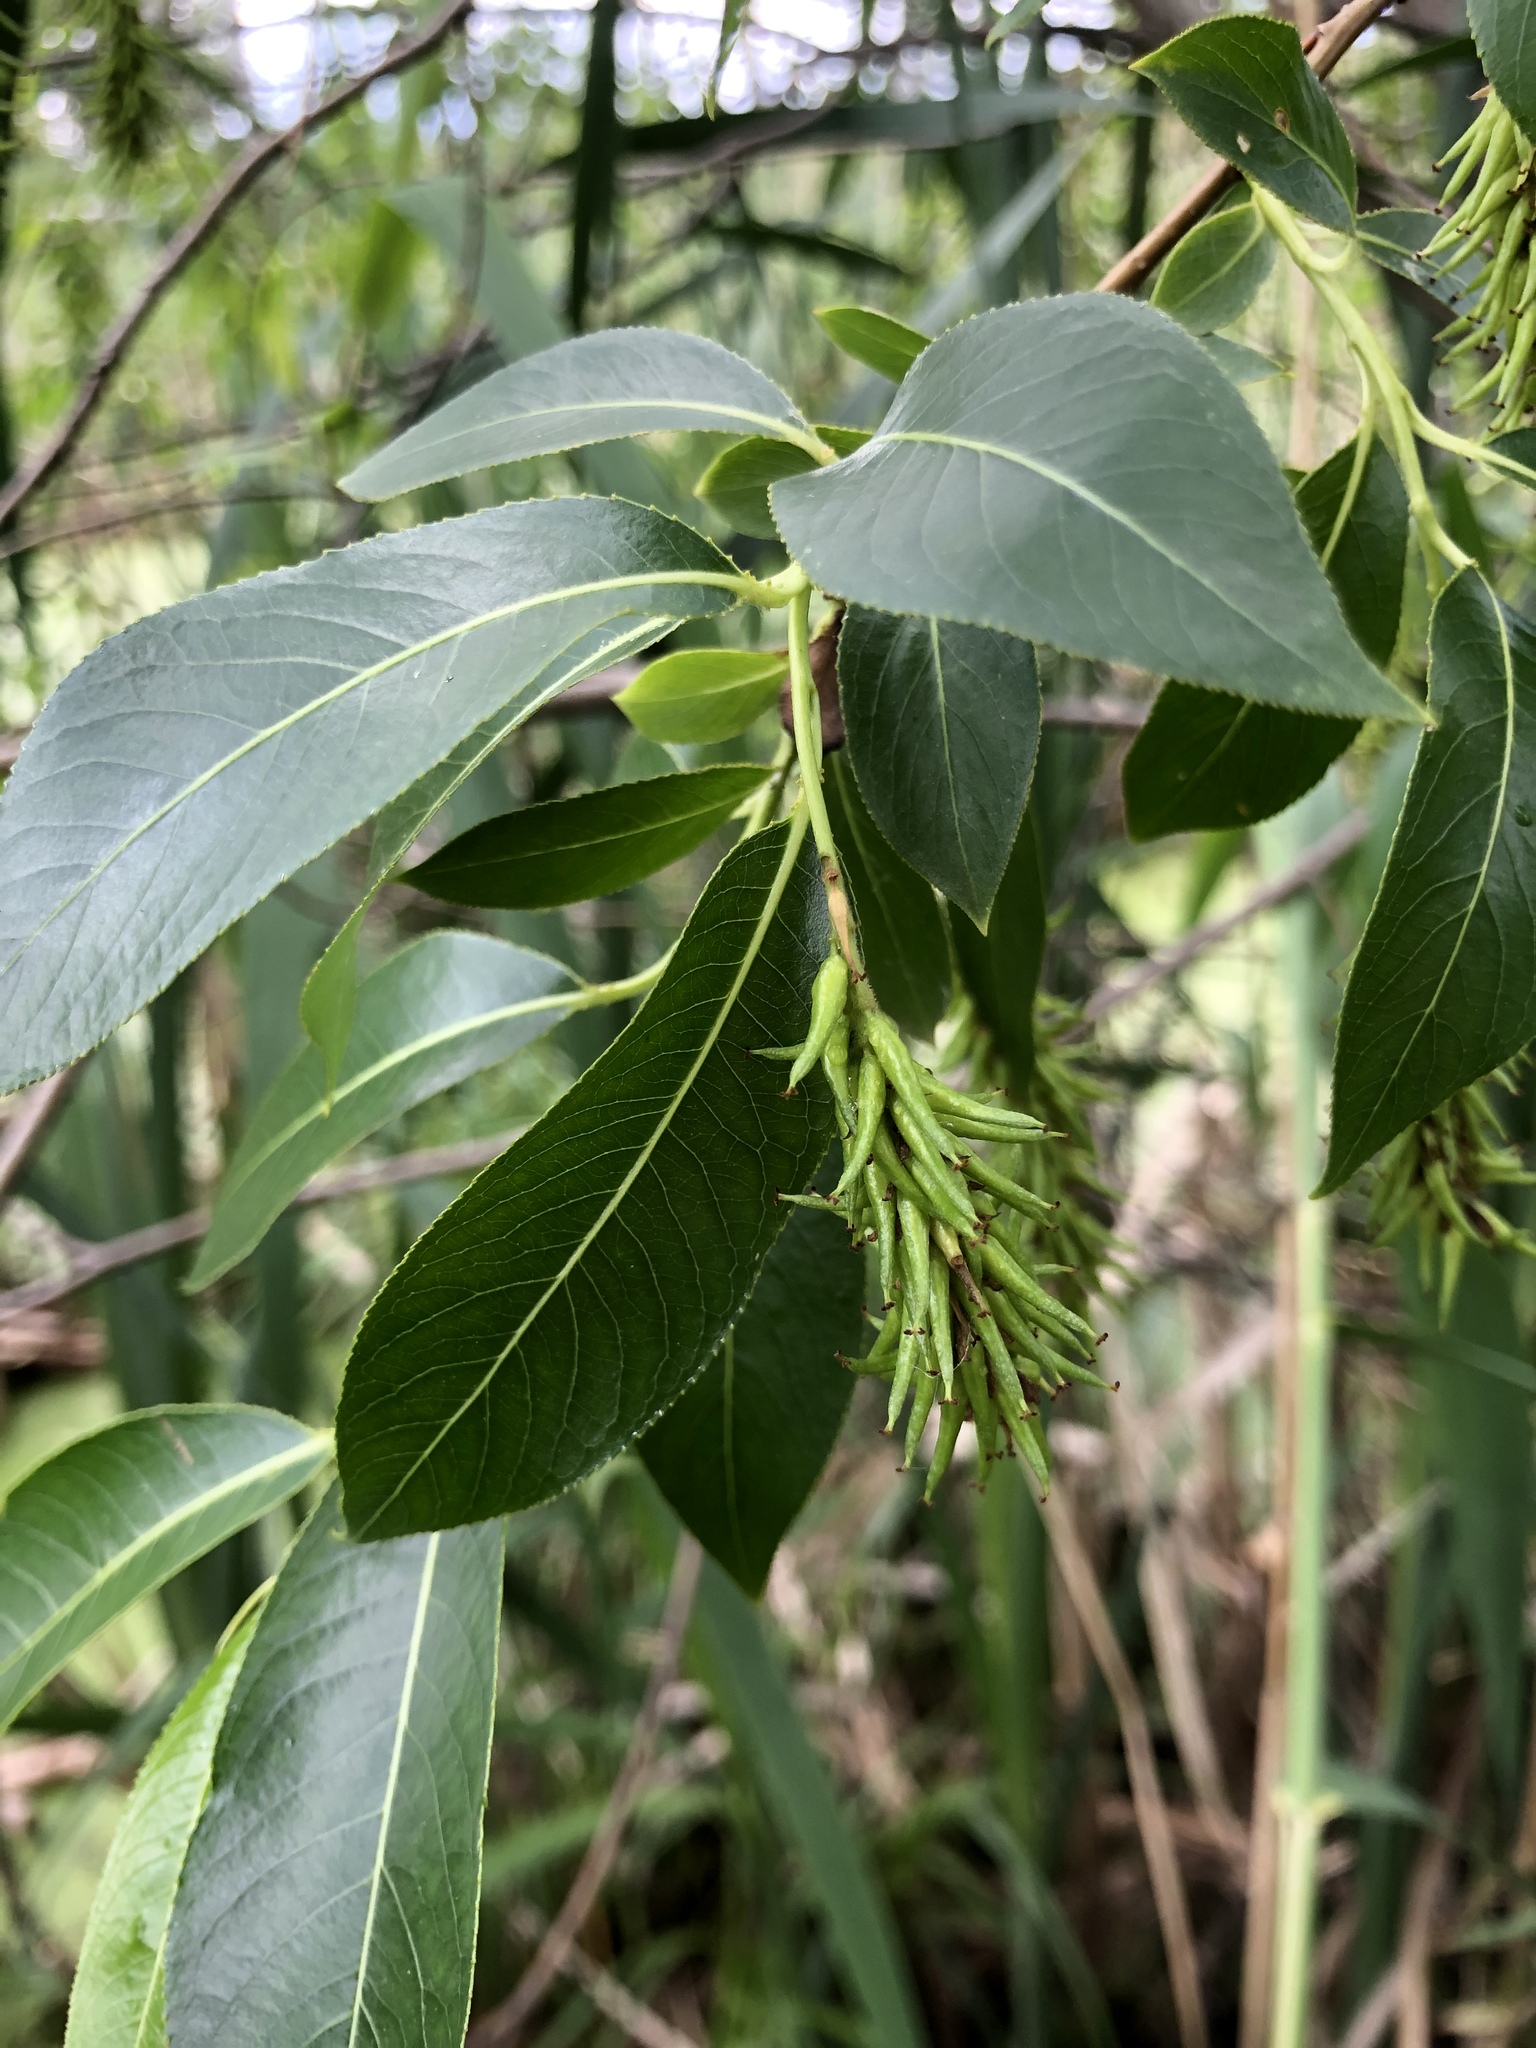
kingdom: Plantae
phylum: Tracheophyta
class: Magnoliopsida
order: Malpighiales
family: Salicaceae
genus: Salix
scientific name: Salix pentandra
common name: Bay willow
